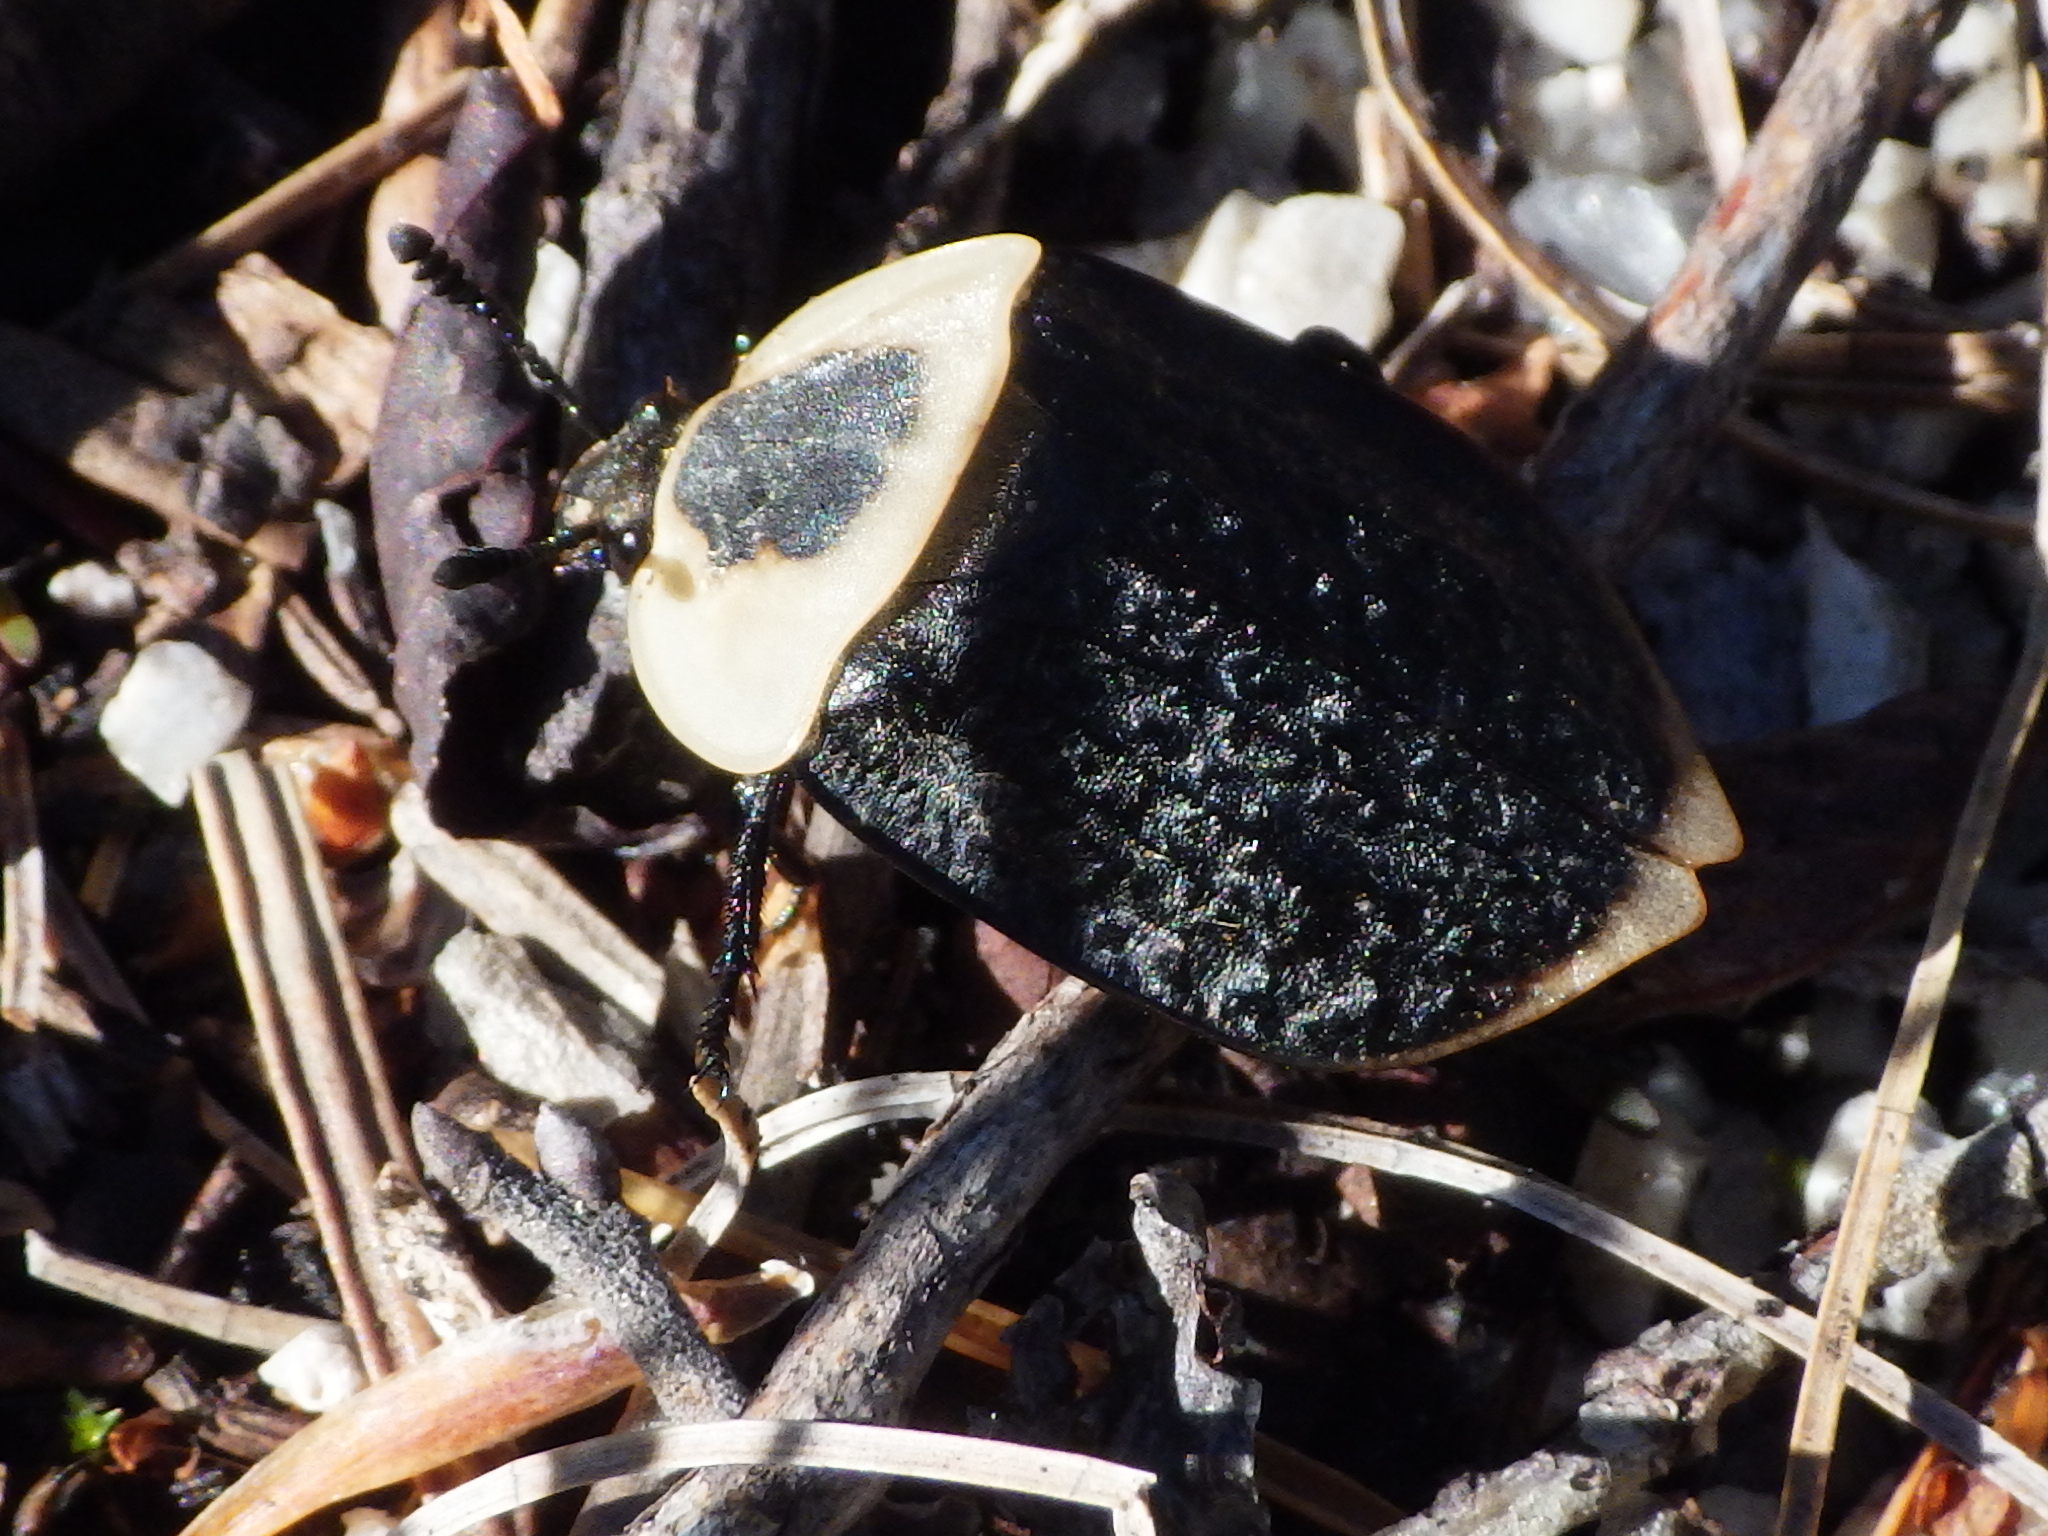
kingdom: Animalia
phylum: Arthropoda
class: Insecta
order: Coleoptera
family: Staphylinidae
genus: Necrophila
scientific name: Necrophila americana
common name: American carrion beetle
